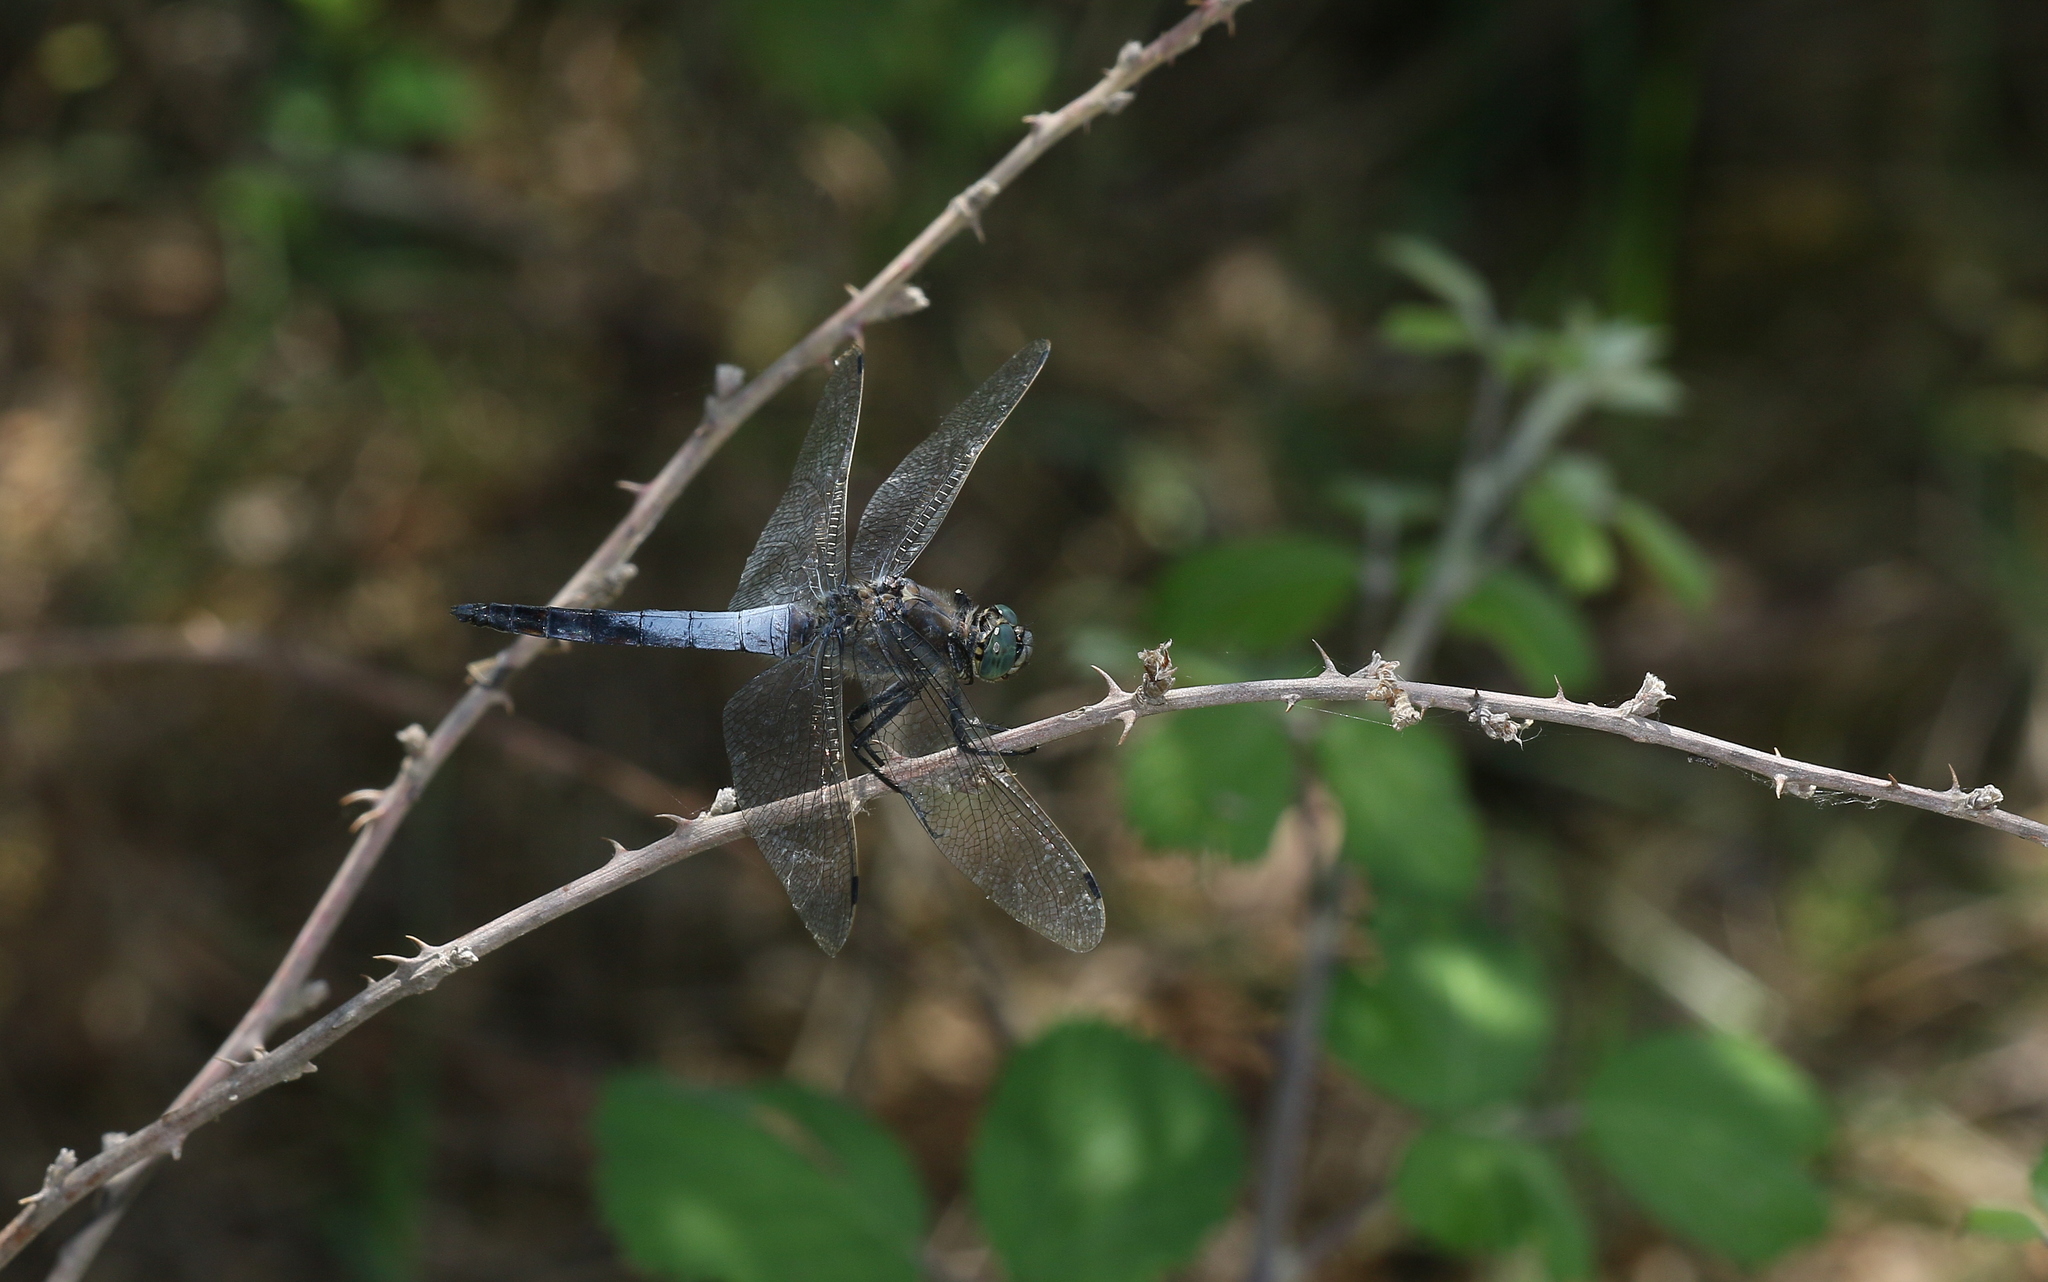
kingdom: Animalia
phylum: Arthropoda
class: Insecta
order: Odonata
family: Libellulidae
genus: Orthetrum
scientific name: Orthetrum cancellatum
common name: Black-tailed skimmer
